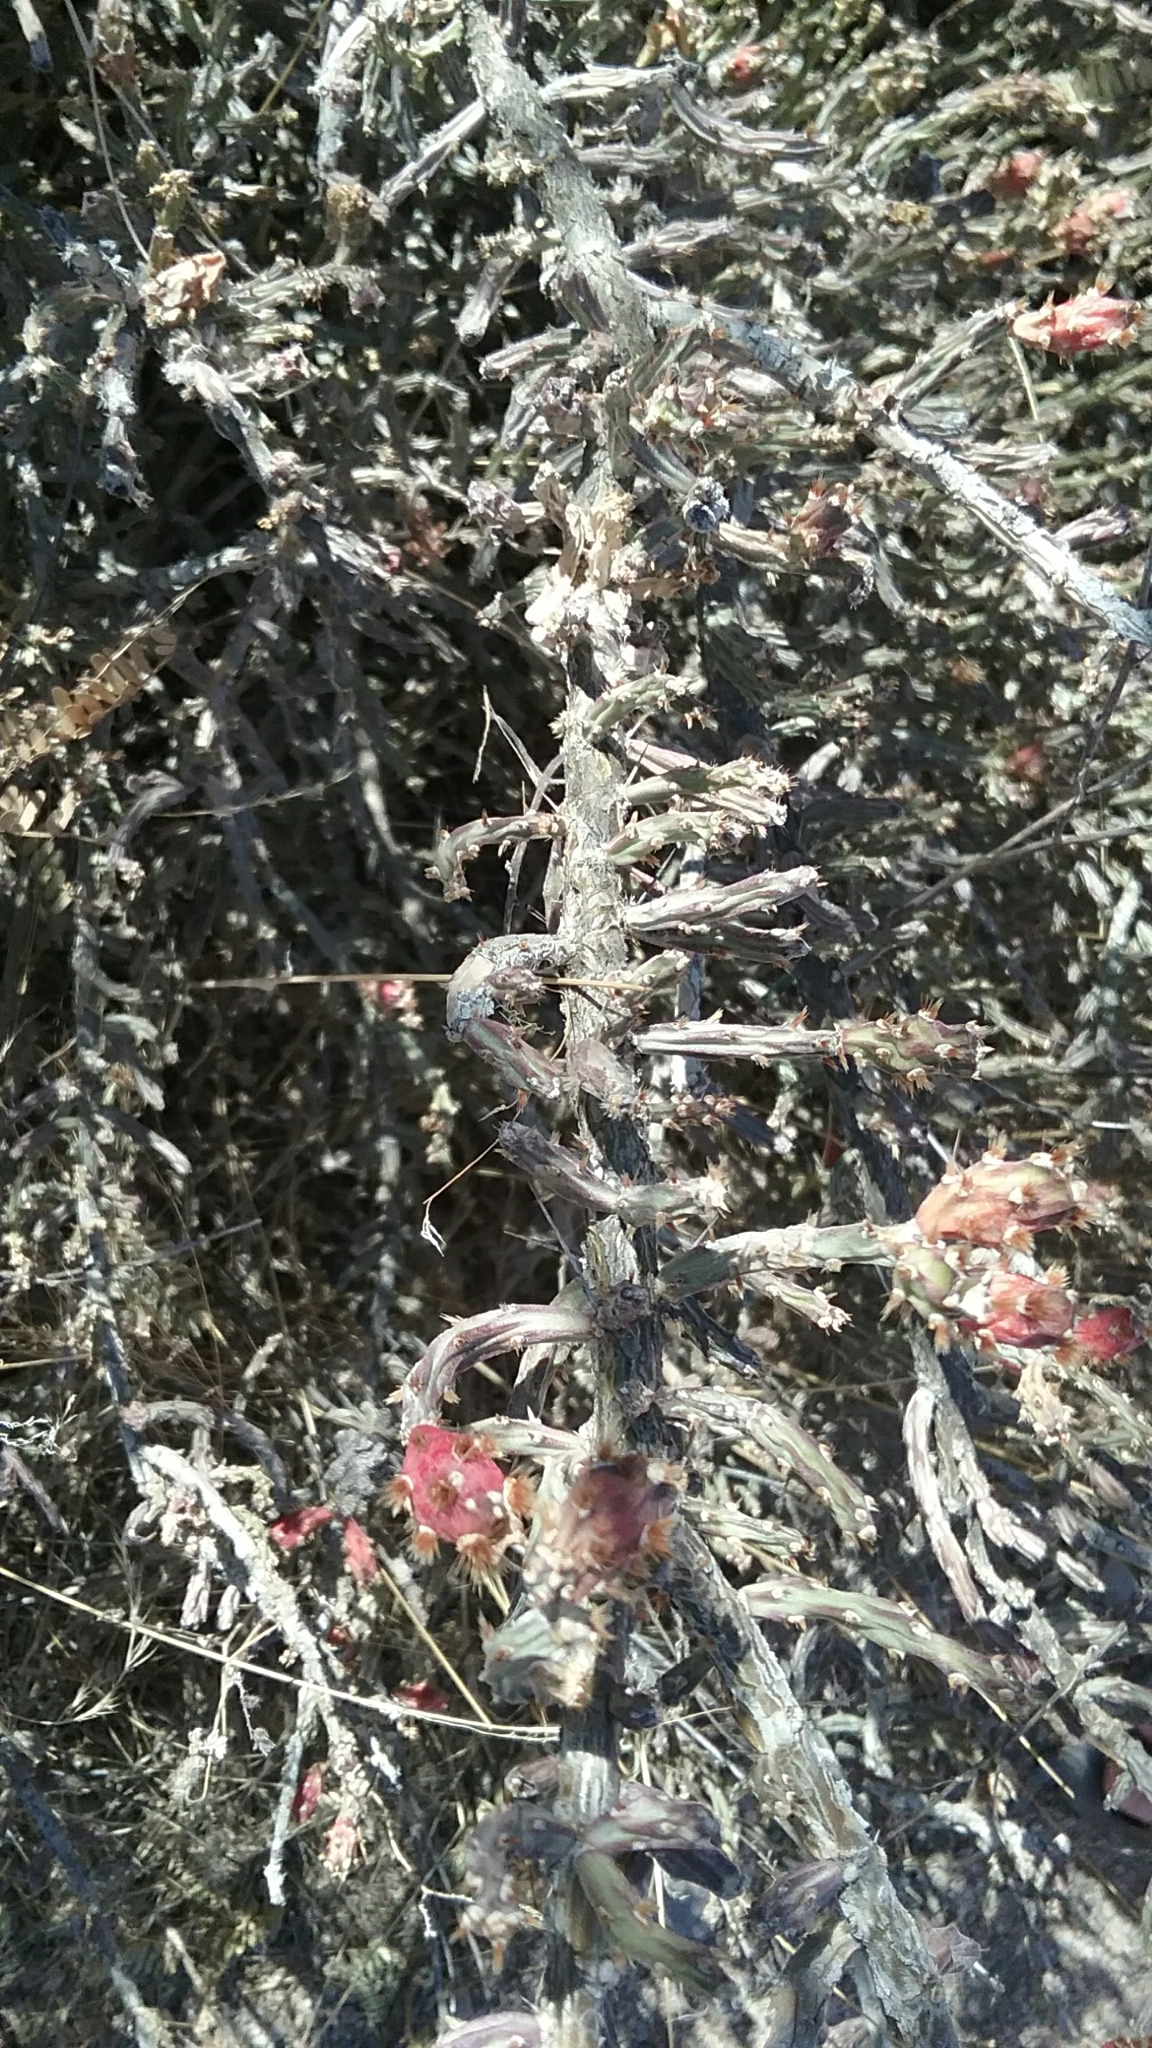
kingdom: Plantae
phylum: Tracheophyta
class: Magnoliopsida
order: Caryophyllales
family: Cactaceae
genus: Cylindropuntia
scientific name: Cylindropuntia leptocaulis
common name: Christmas cactus
